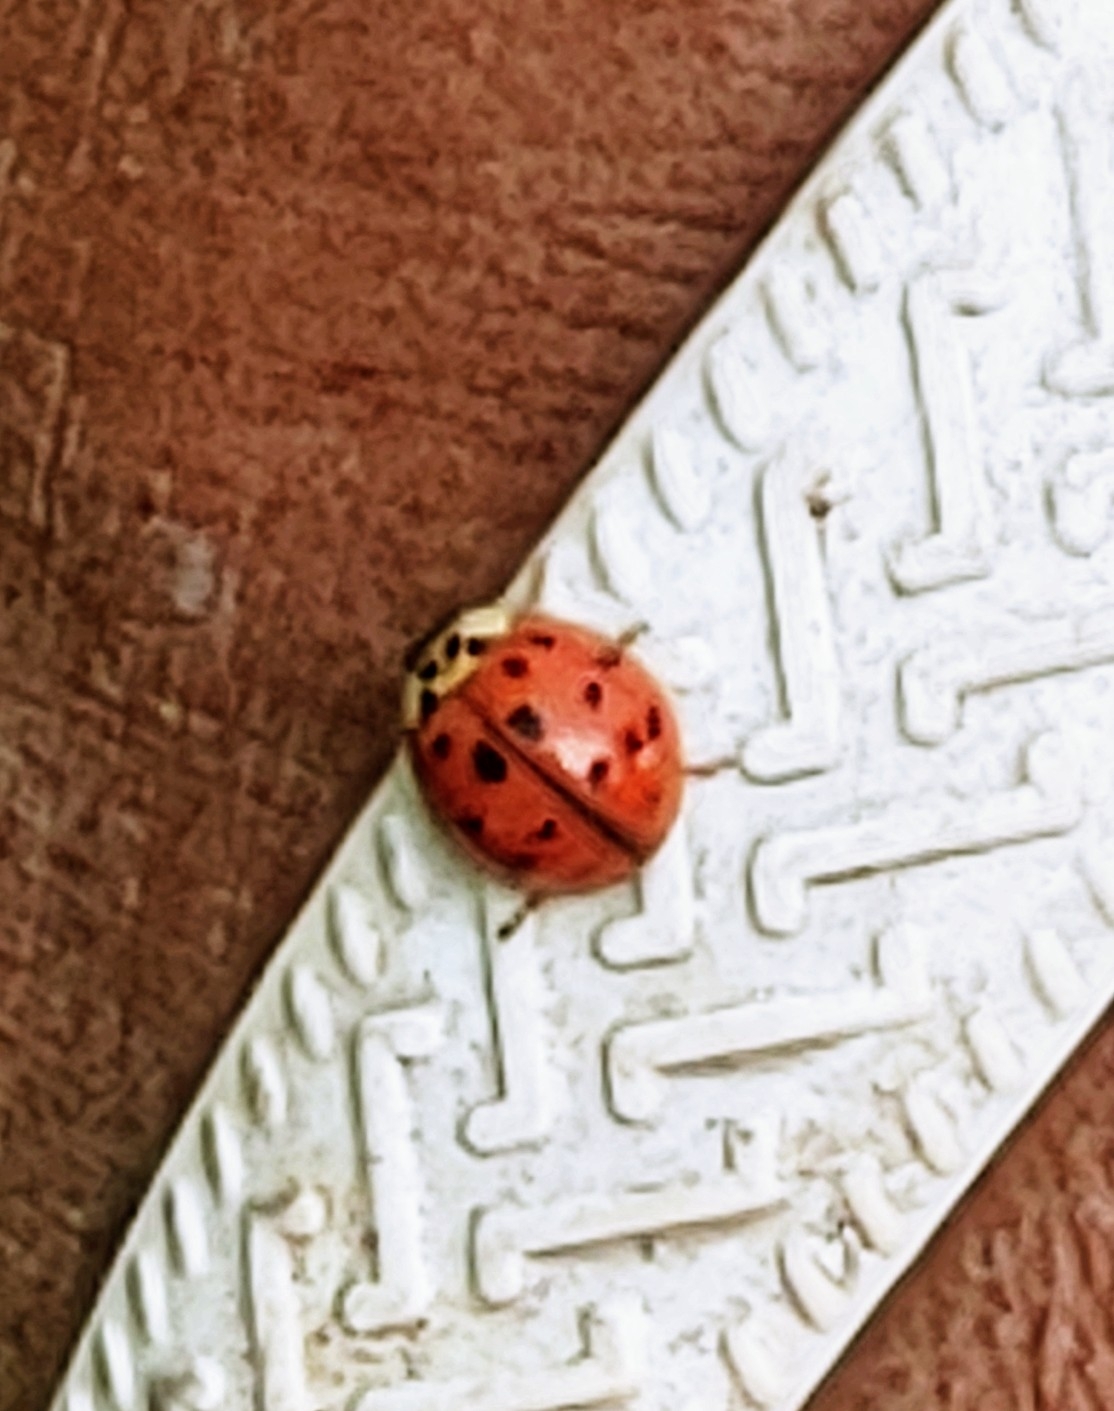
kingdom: Animalia
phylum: Arthropoda
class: Insecta
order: Coleoptera
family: Coccinellidae
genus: Harmonia
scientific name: Harmonia axyridis
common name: Harlequin ladybird
